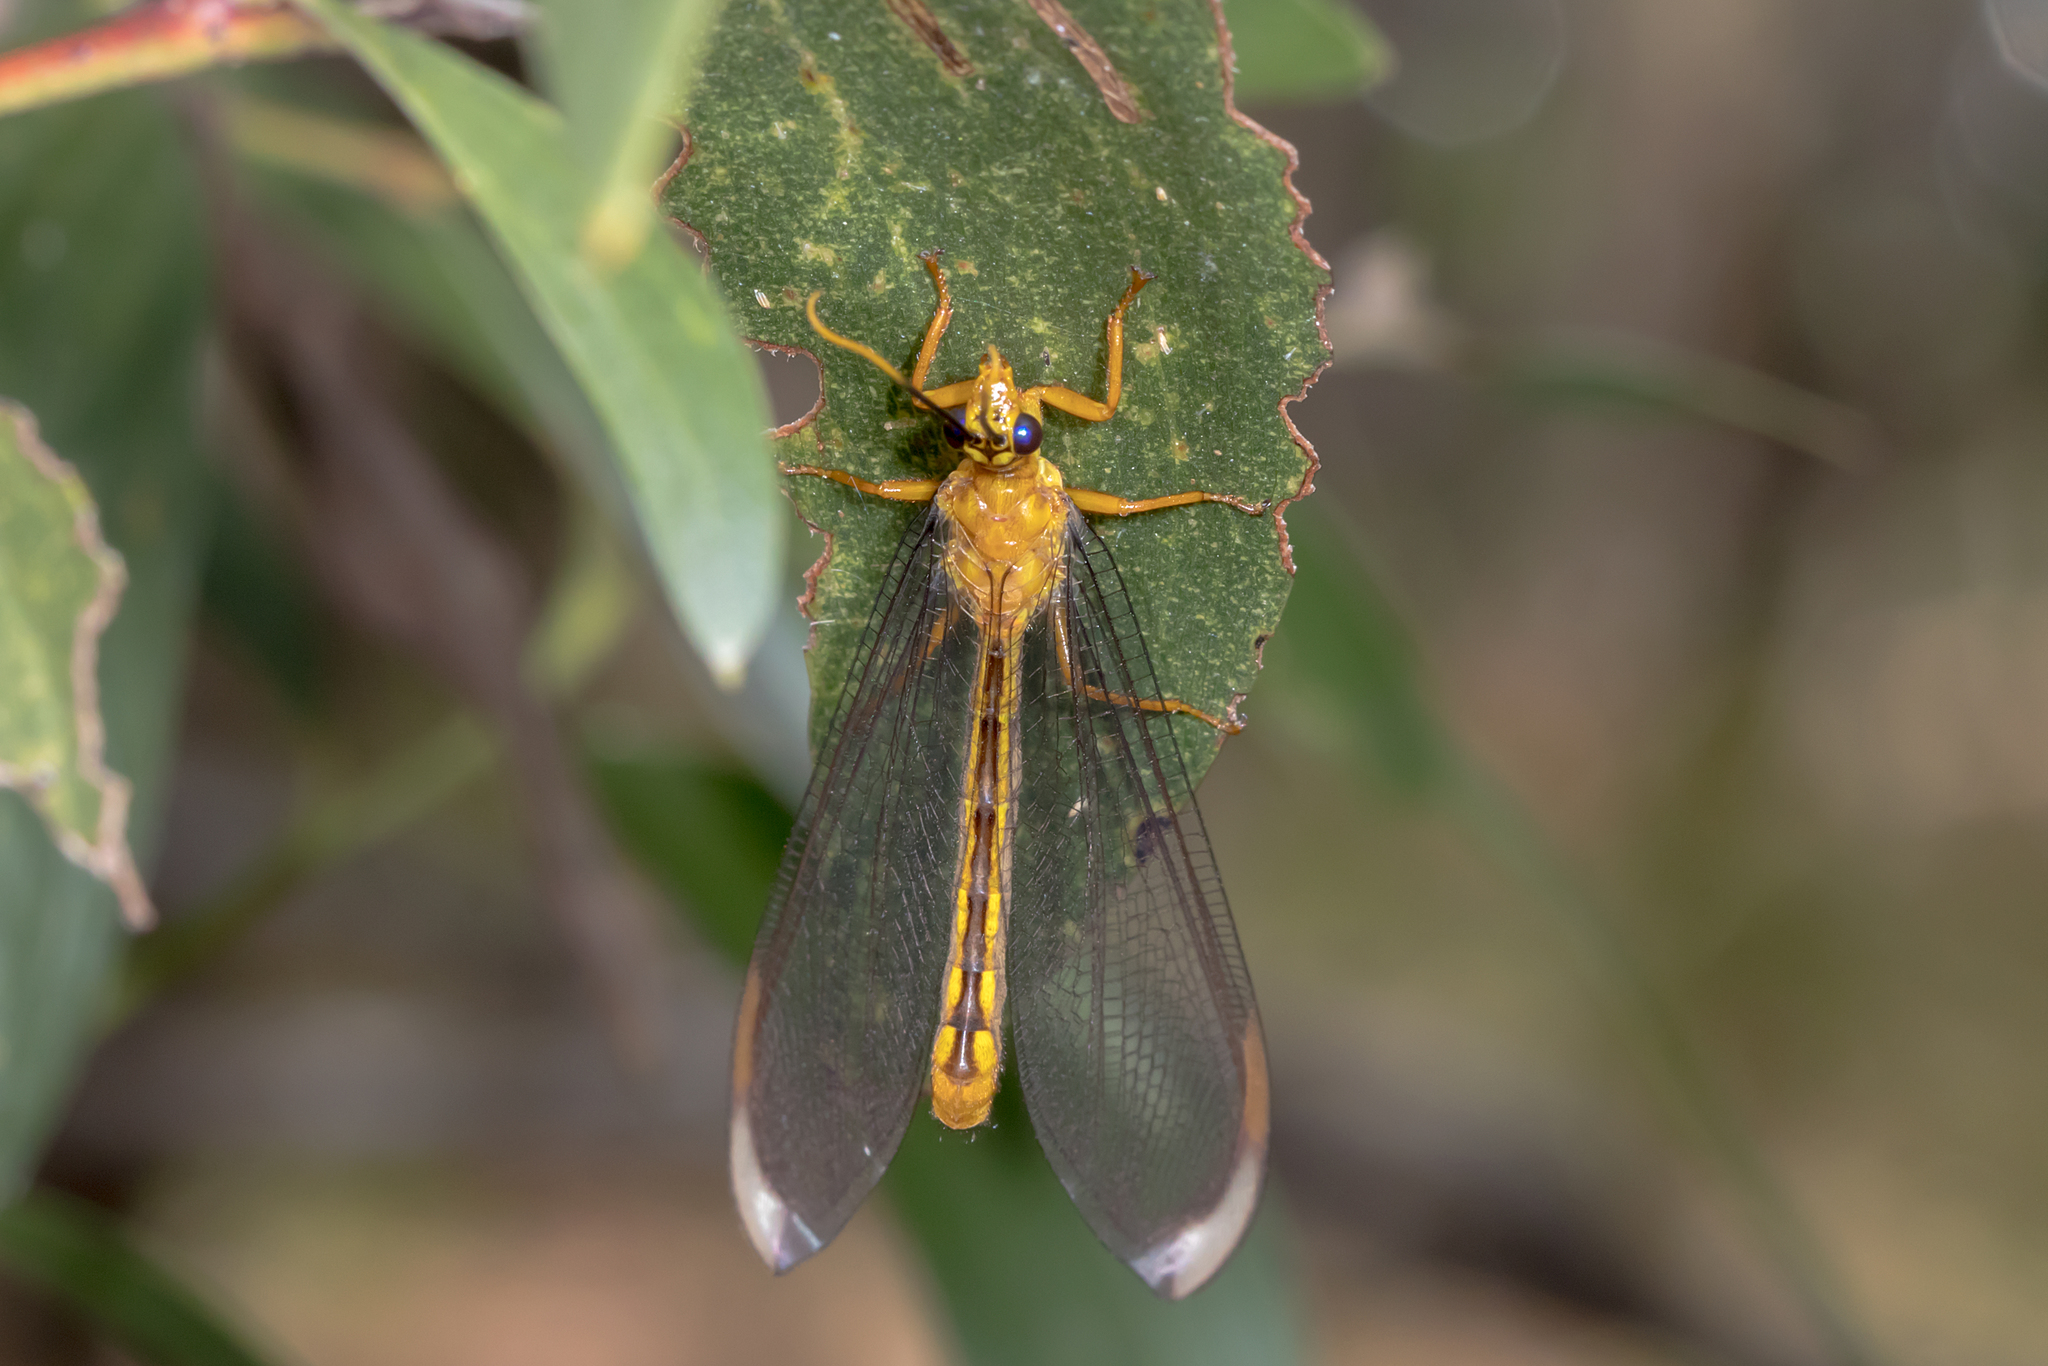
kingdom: Animalia
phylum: Arthropoda
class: Insecta
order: Neuroptera
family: Nymphidae
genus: Nymphes
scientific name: Nymphes myrmeleonoides
